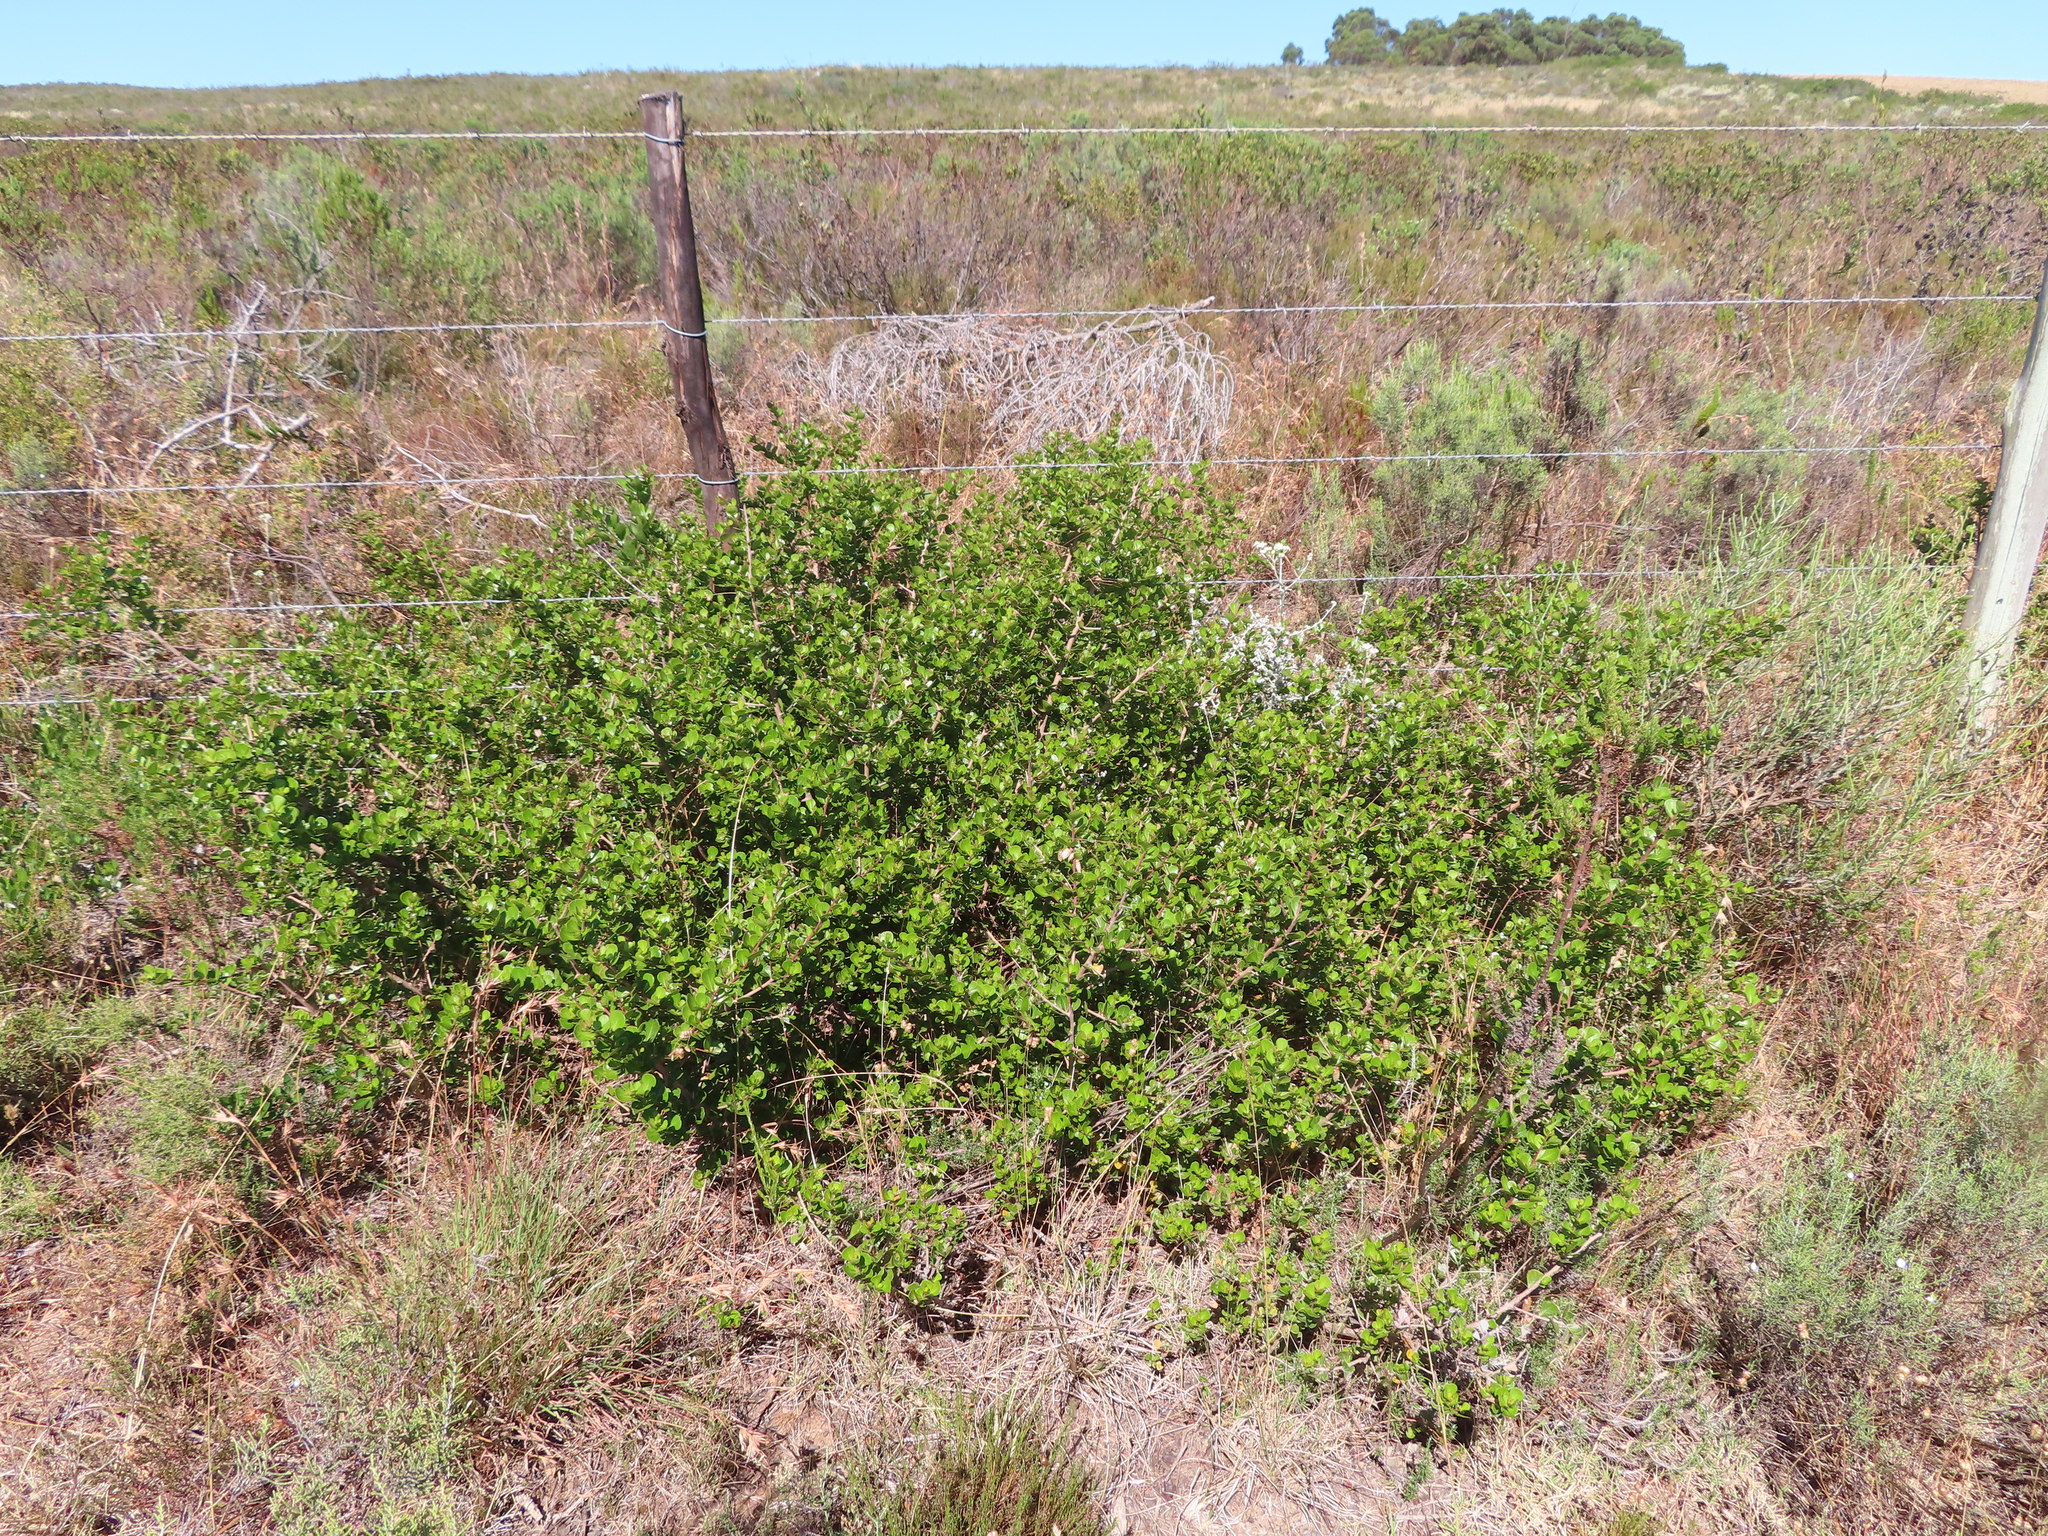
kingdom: Plantae
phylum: Tracheophyta
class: Magnoliopsida
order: Sapindales
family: Anacardiaceae
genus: Searsia
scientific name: Searsia lucida
